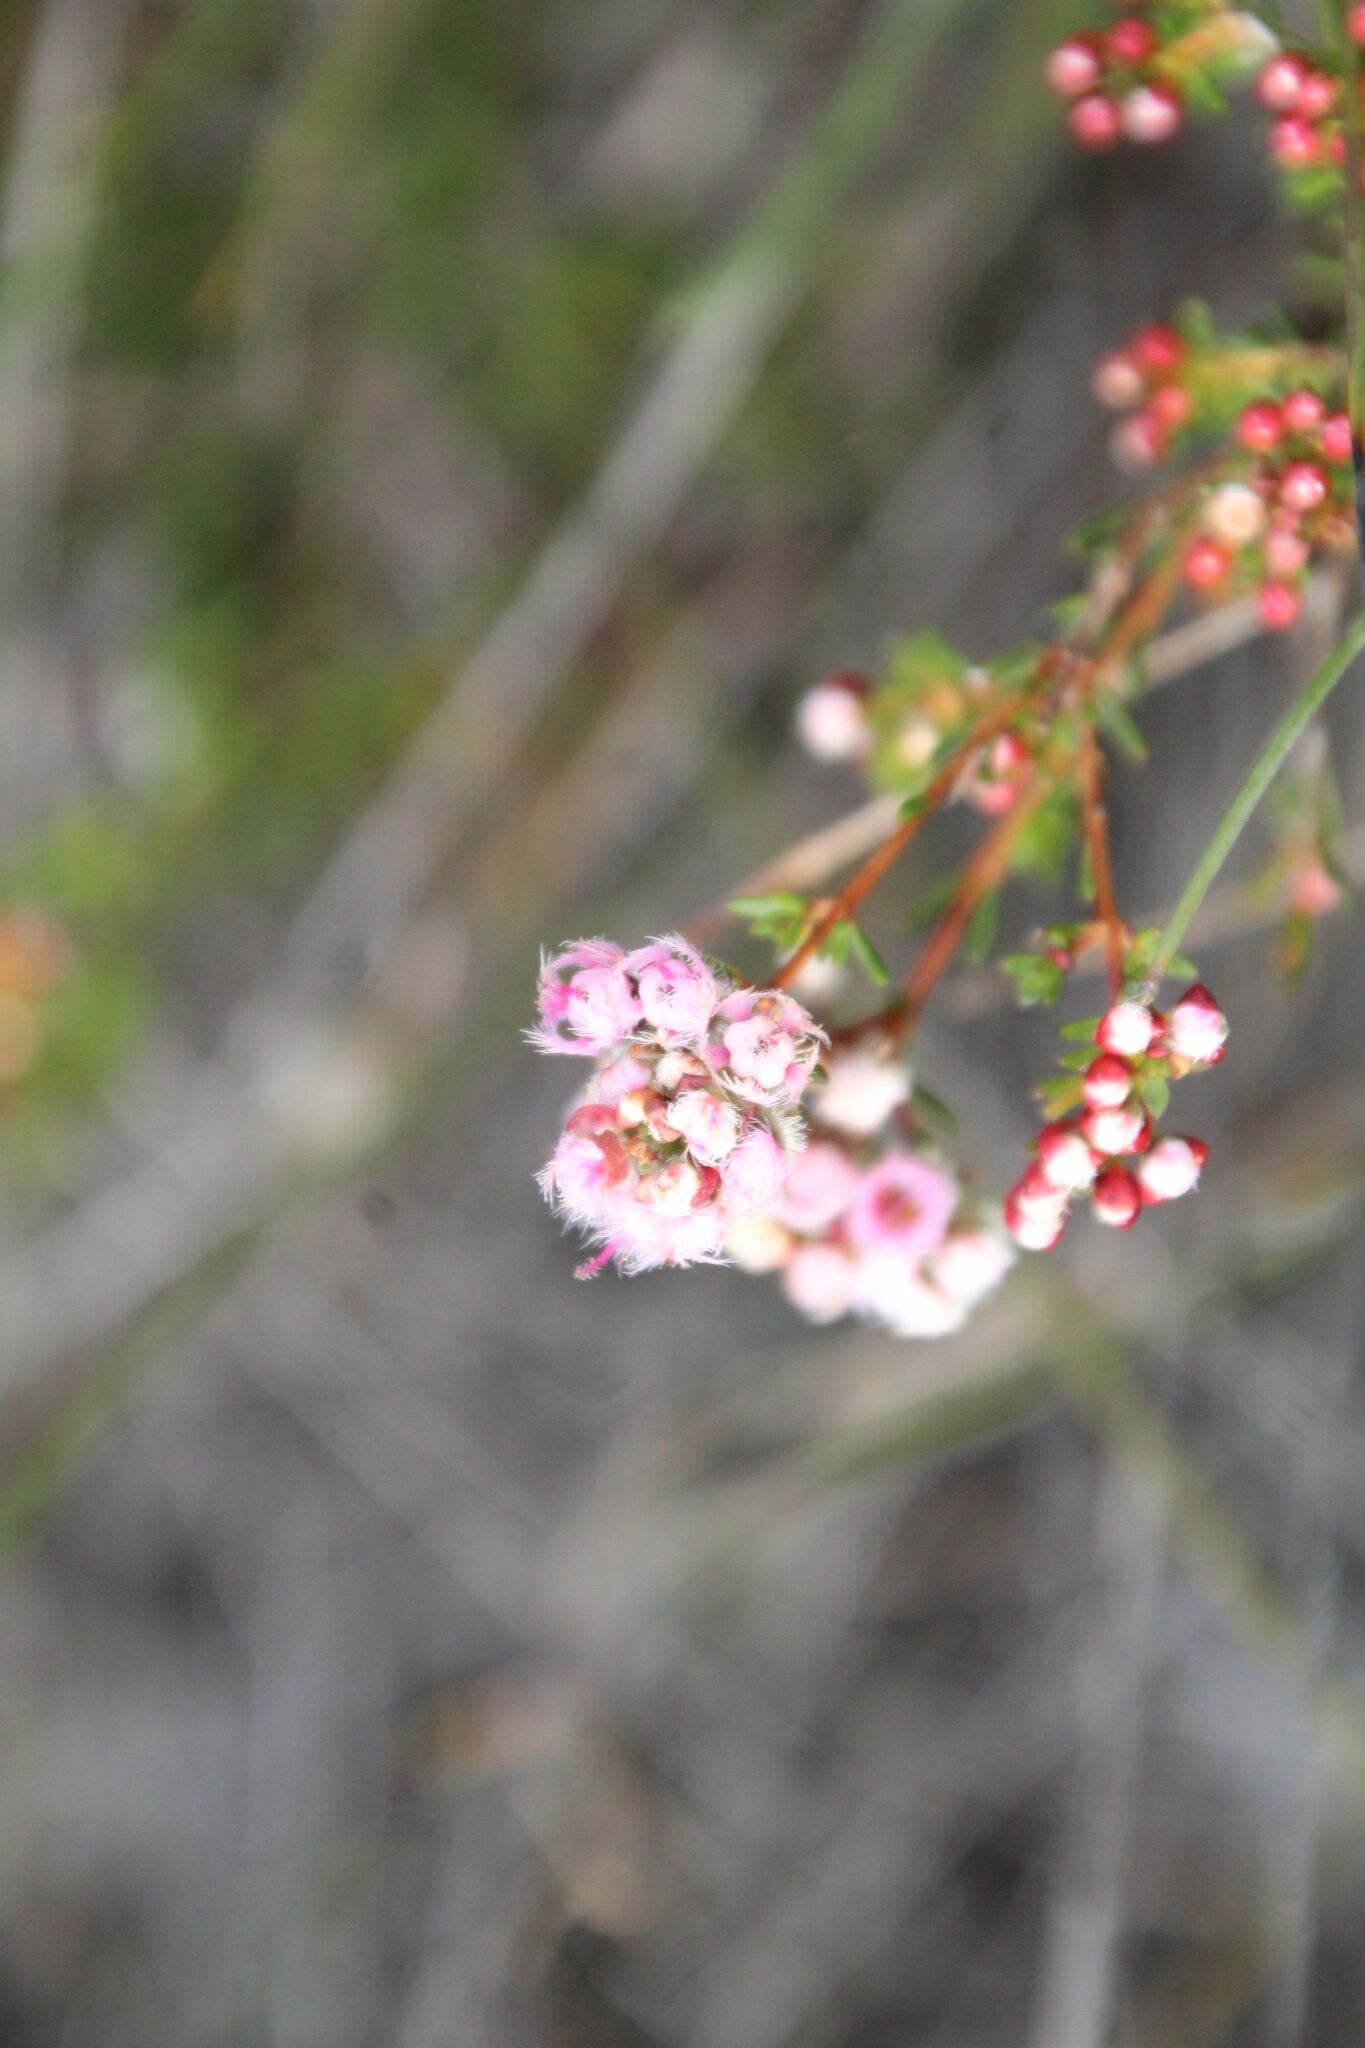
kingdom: Plantae
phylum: Tracheophyta
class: Magnoliopsida
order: Myrtales
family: Myrtaceae
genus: Verticordia
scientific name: Verticordia densiflora
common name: Compact feather-flower
